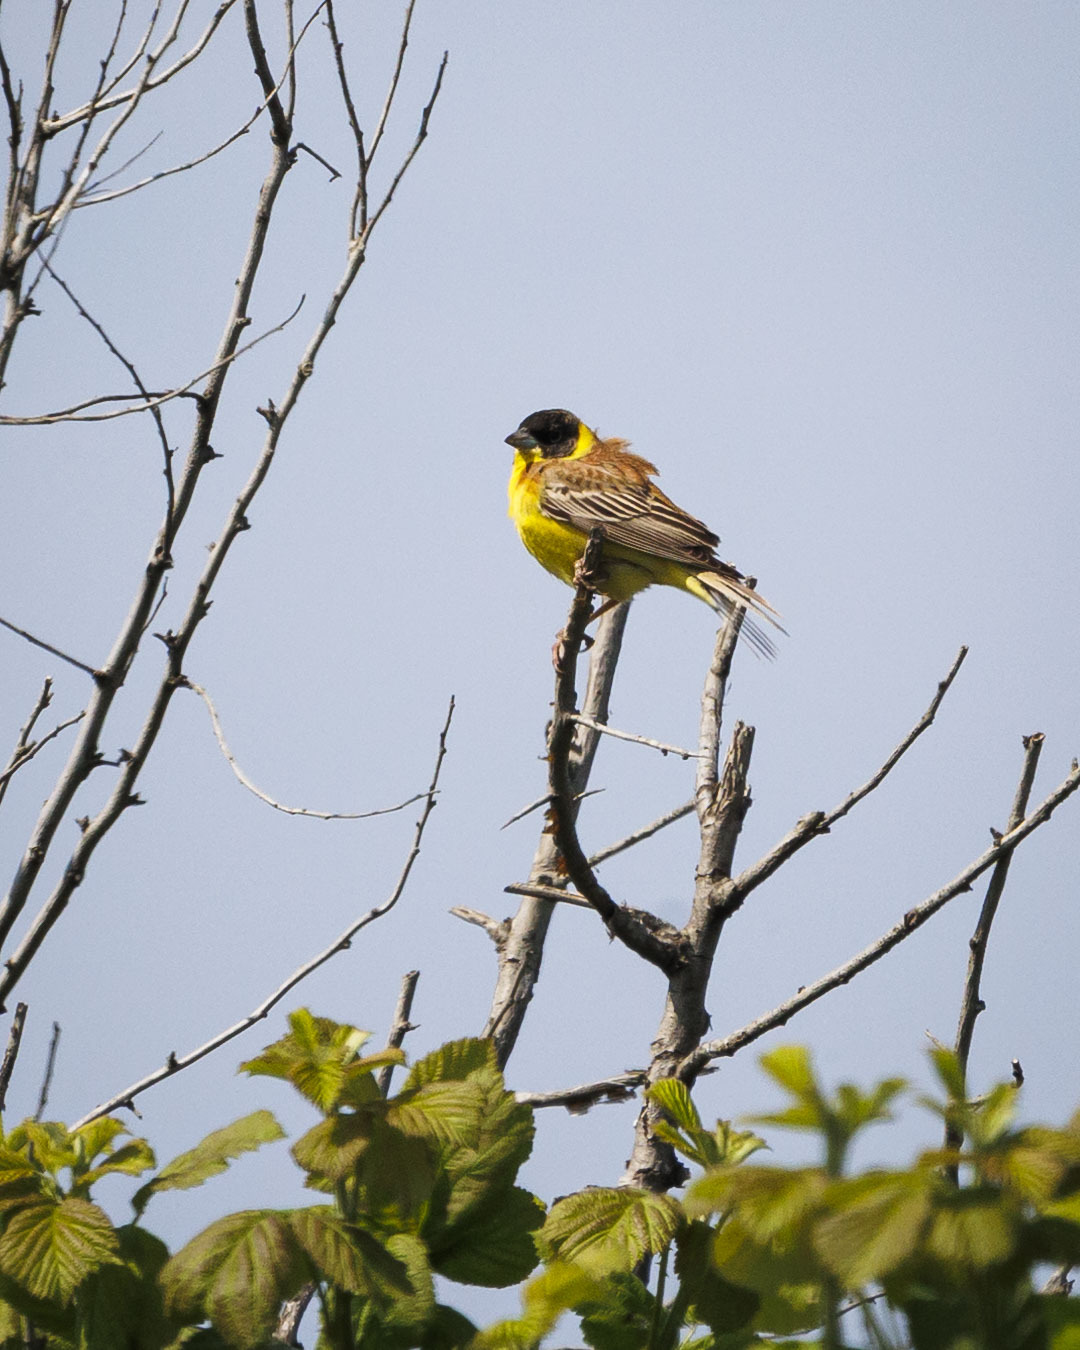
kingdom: Animalia
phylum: Chordata
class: Aves
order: Passeriformes
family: Emberizidae
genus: Emberiza
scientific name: Emberiza melanocephala
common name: Black-headed bunting
